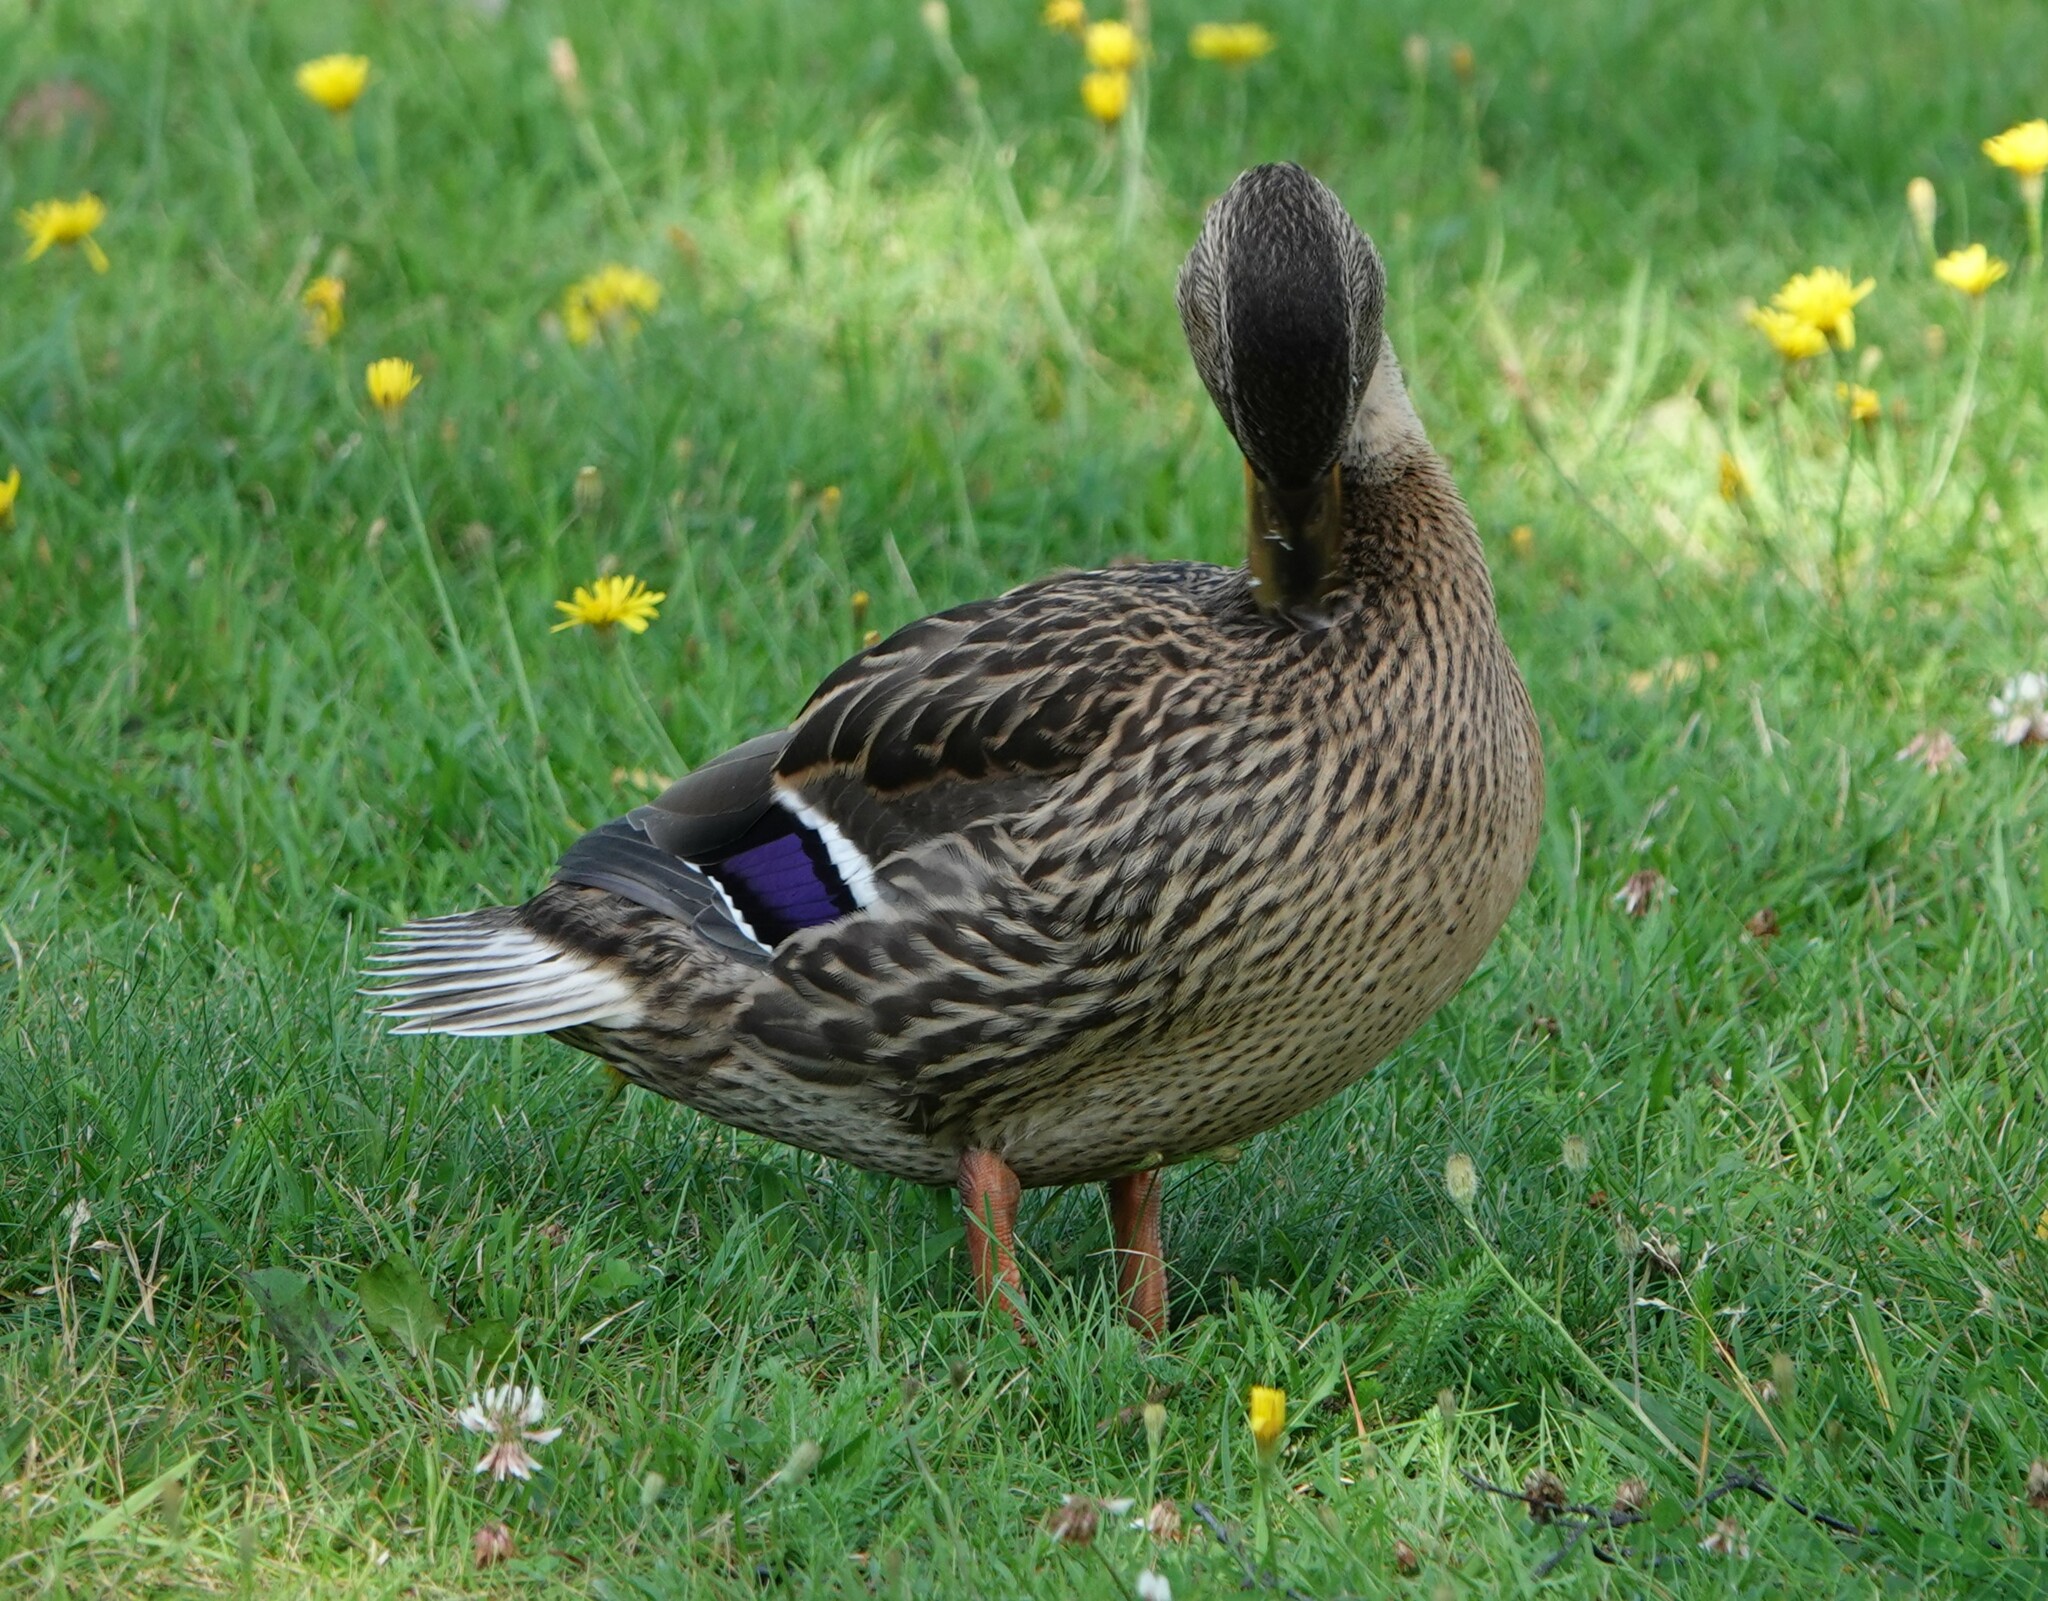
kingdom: Animalia
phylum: Chordata
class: Aves
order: Anseriformes
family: Anatidae
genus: Anas
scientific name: Anas platyrhynchos
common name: Mallard
